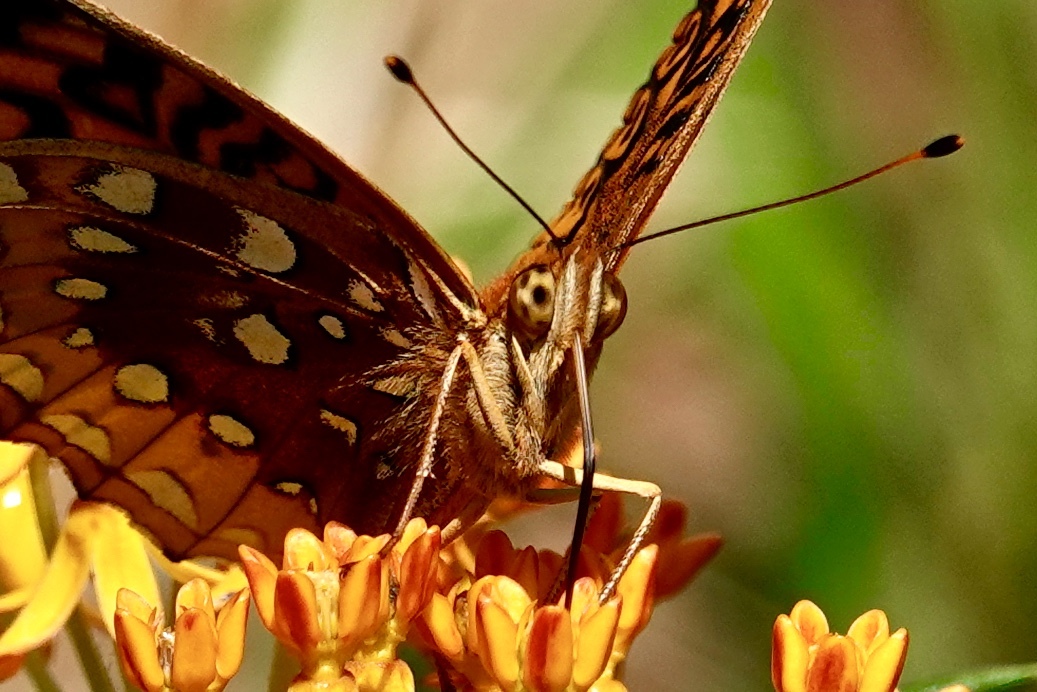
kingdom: Animalia
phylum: Arthropoda
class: Insecta
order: Lepidoptera
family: Nymphalidae
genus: Speyeria
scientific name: Speyeria cybele
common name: Great spangled fritillary
